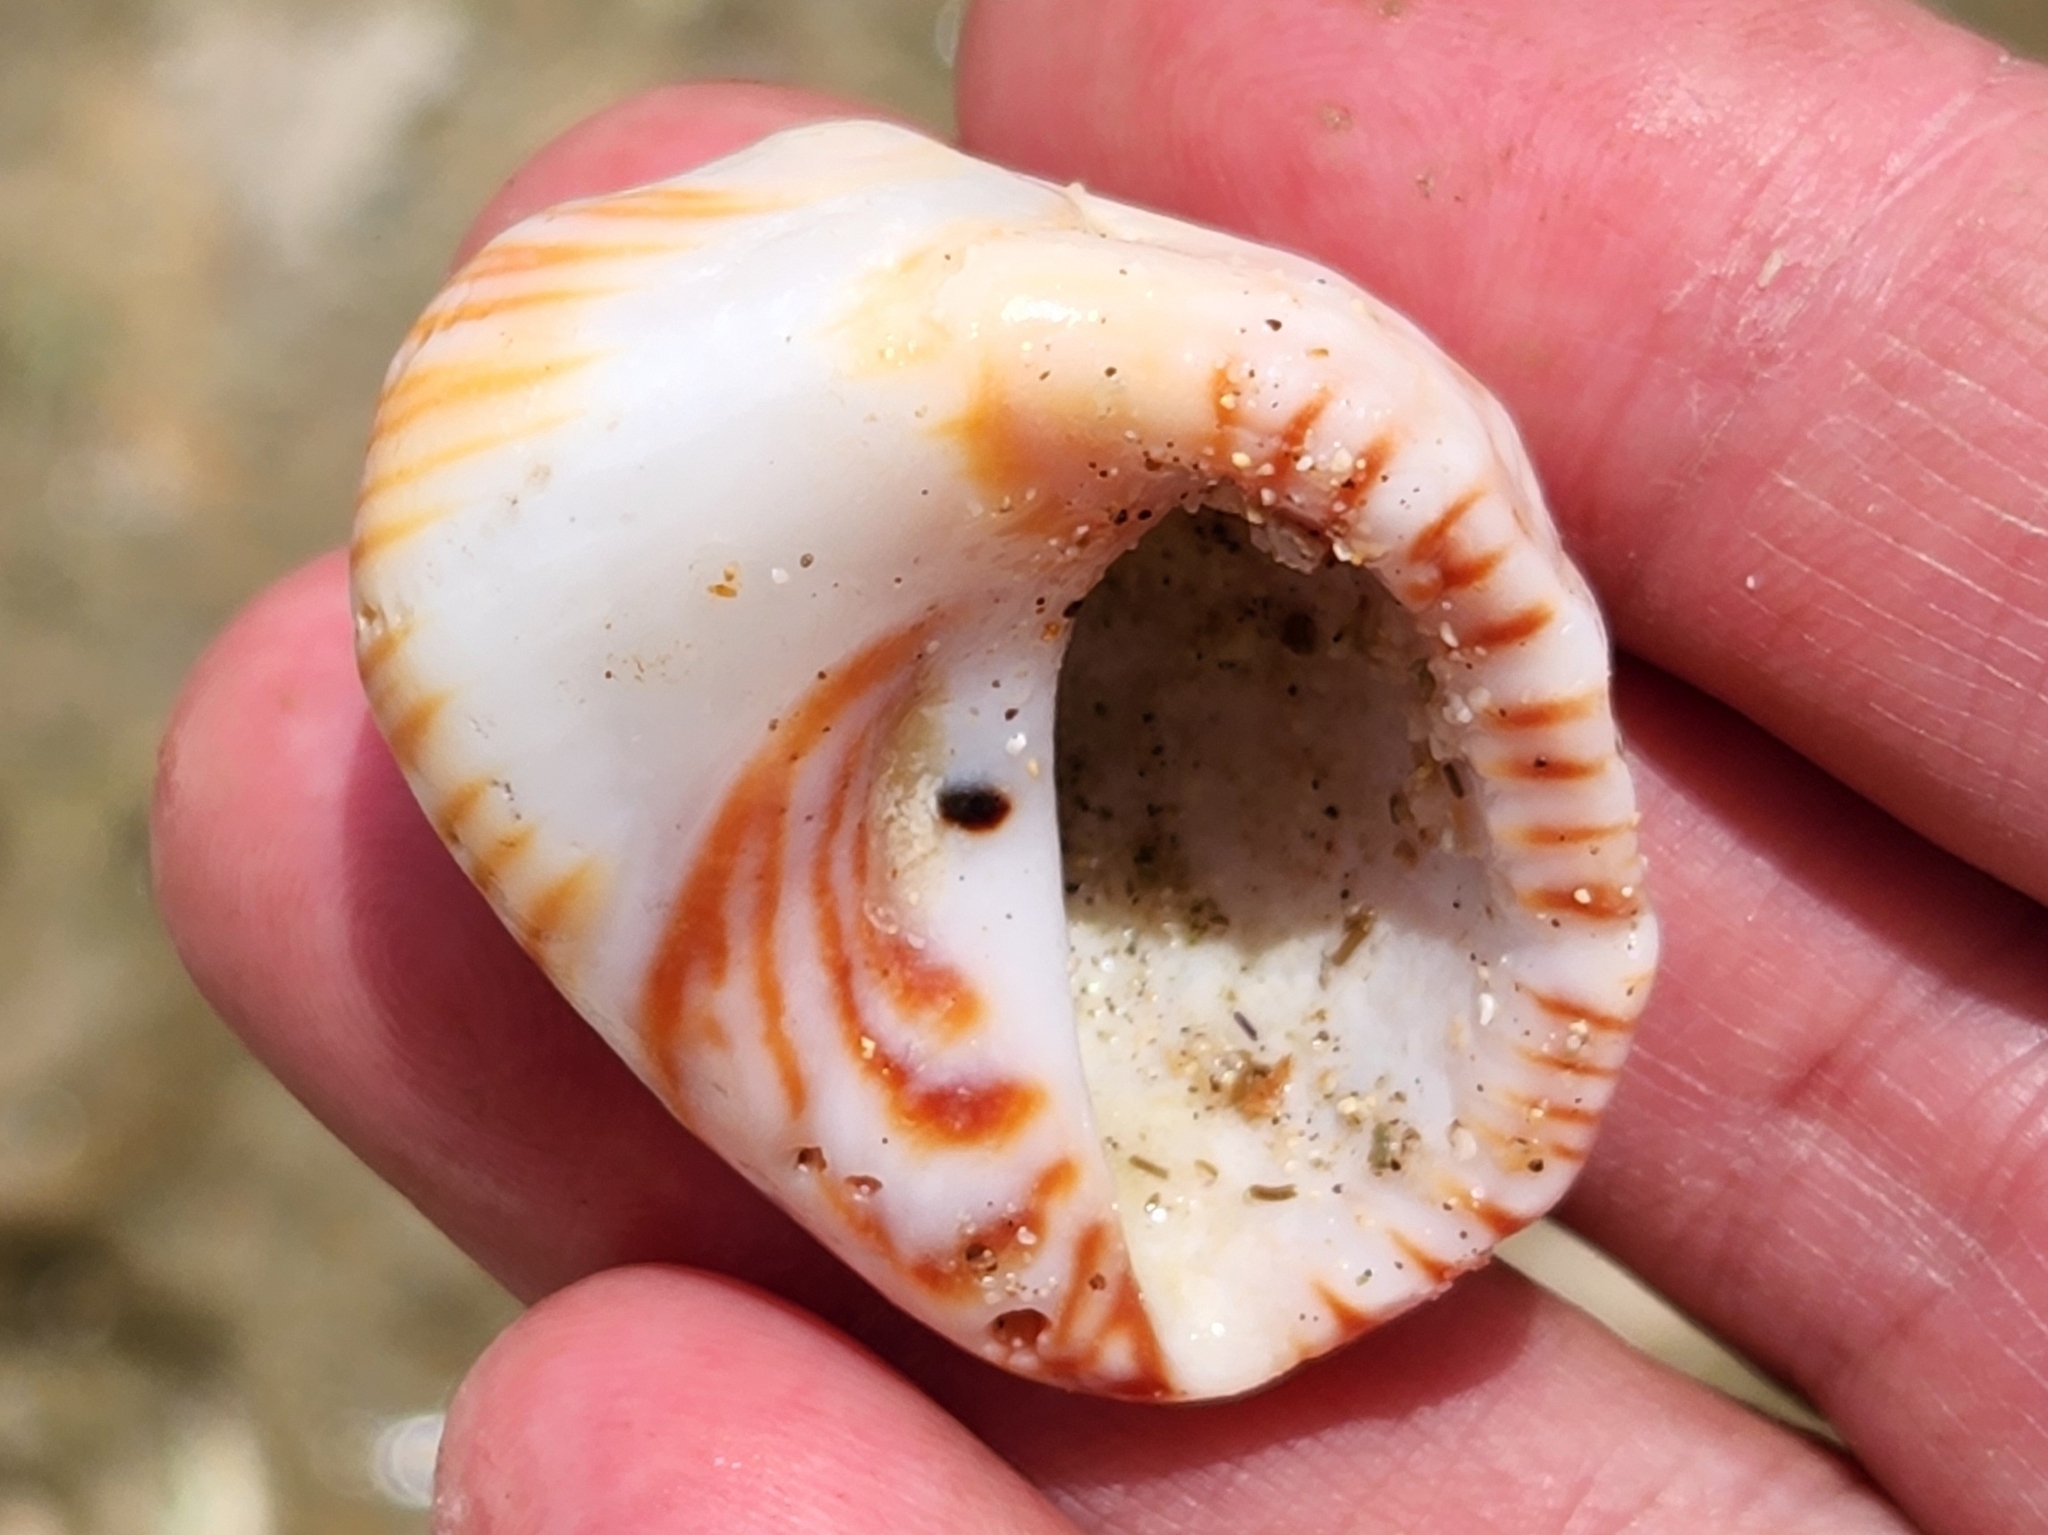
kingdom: Animalia
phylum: Mollusca
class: Gastropoda
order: Neogastropoda
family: Muricidae
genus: Tribulus
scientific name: Tribulus planospira
